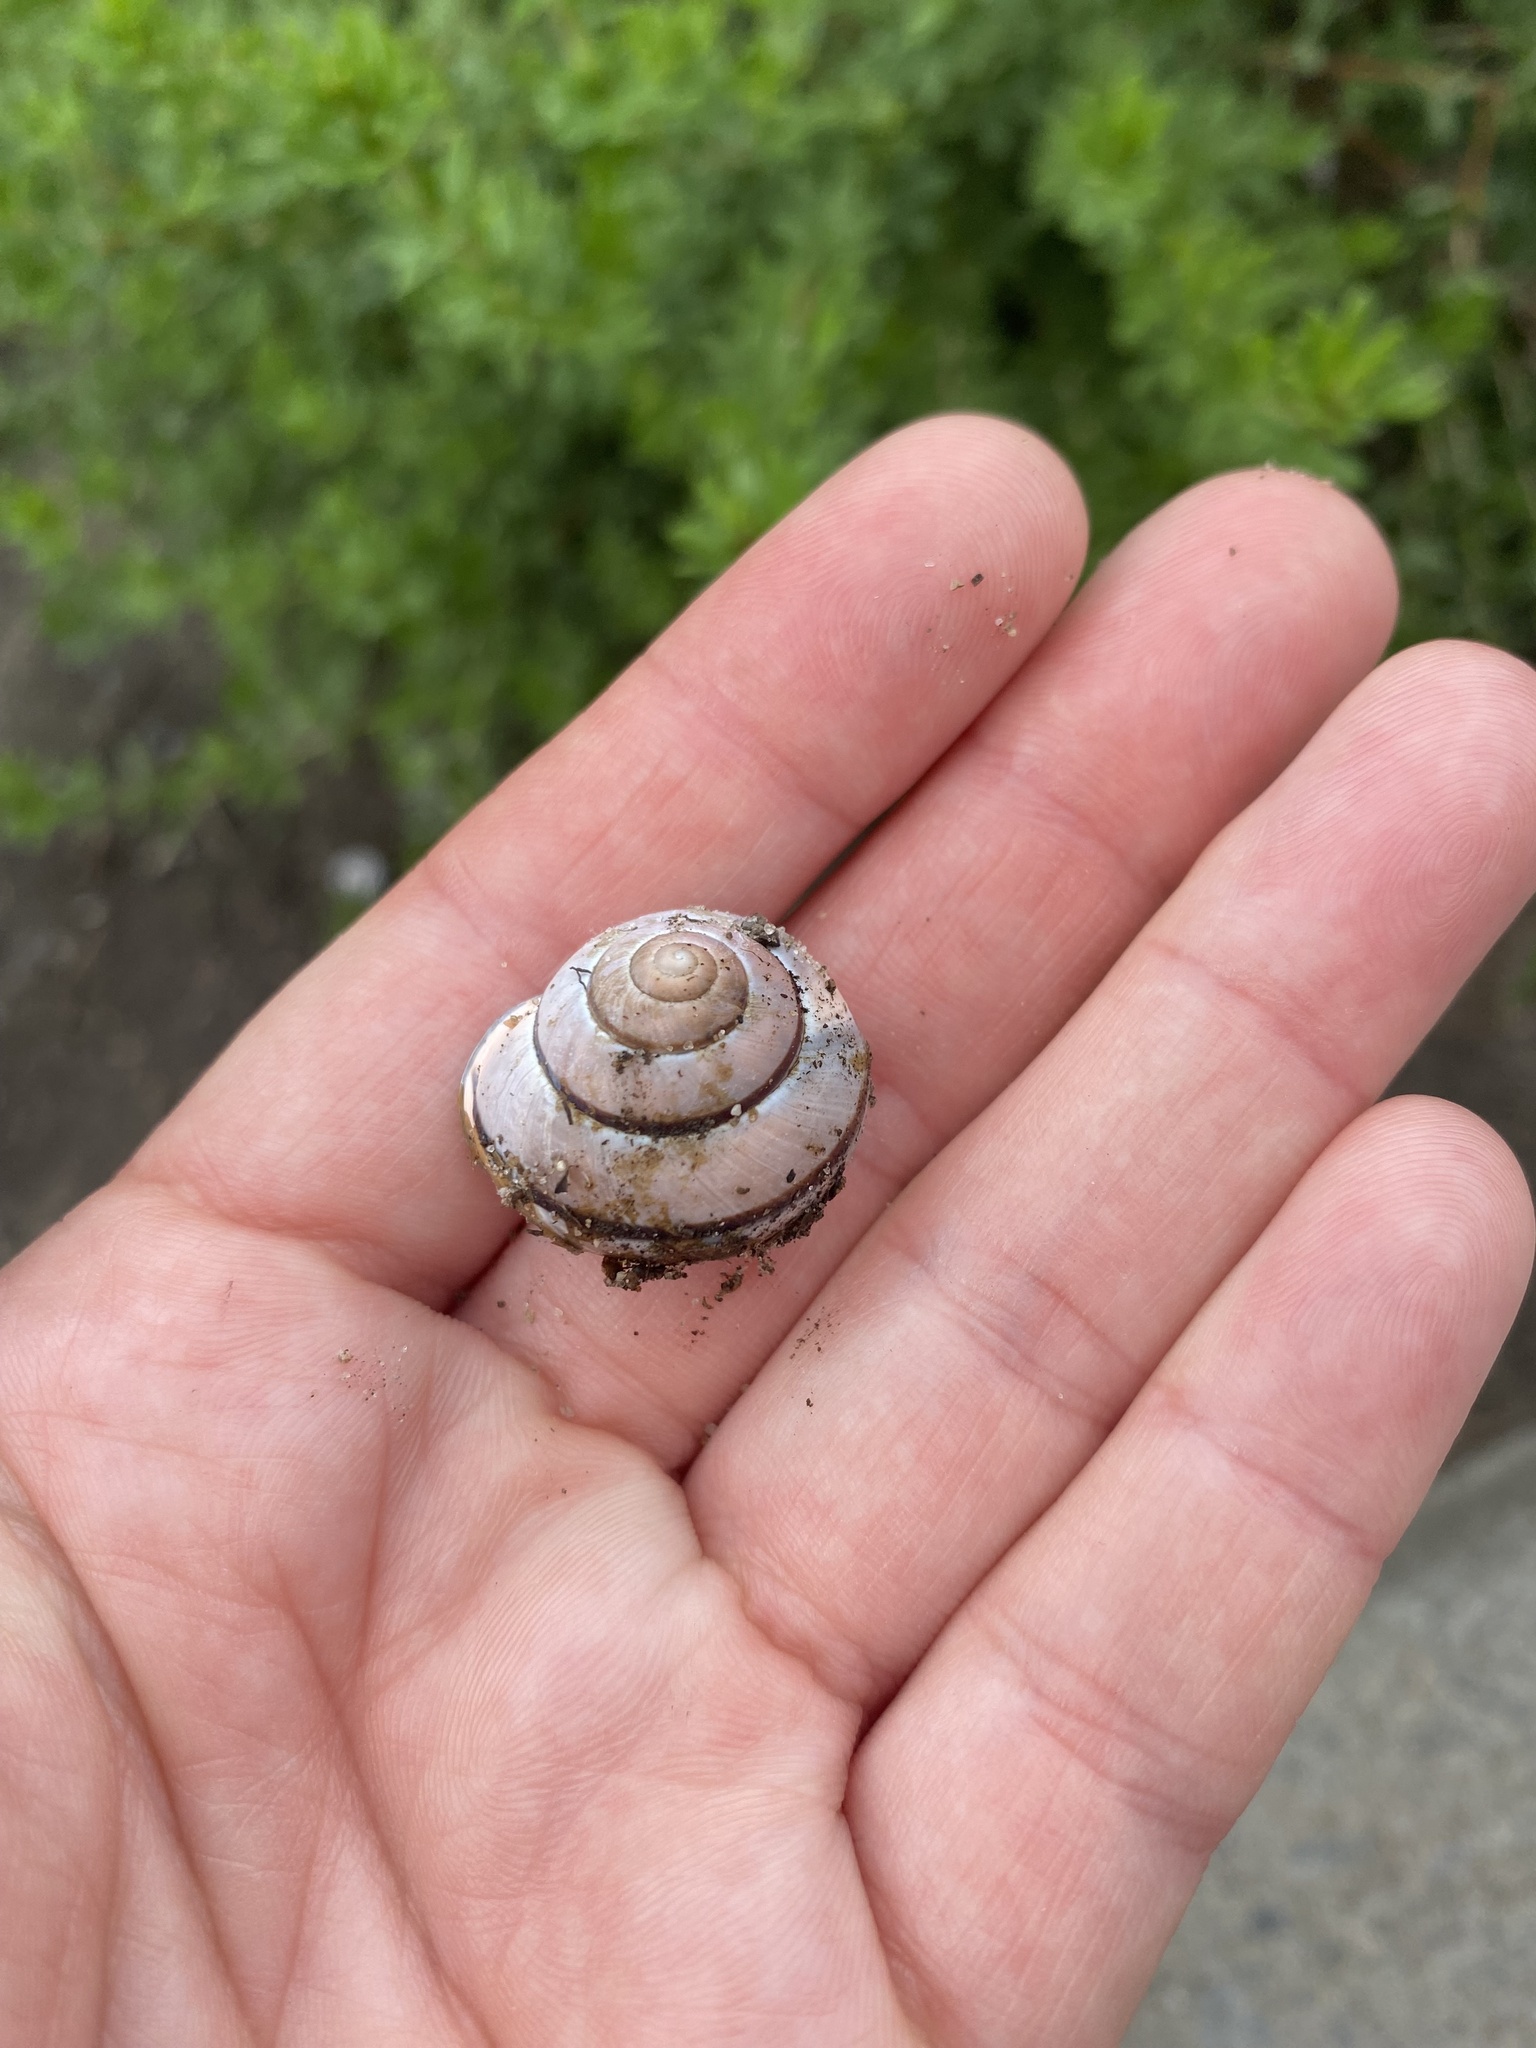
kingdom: Animalia
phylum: Mollusca
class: Gastropoda
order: Stylommatophora
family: Helicidae
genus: Cepaea
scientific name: Cepaea nemoralis
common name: Grovesnail
